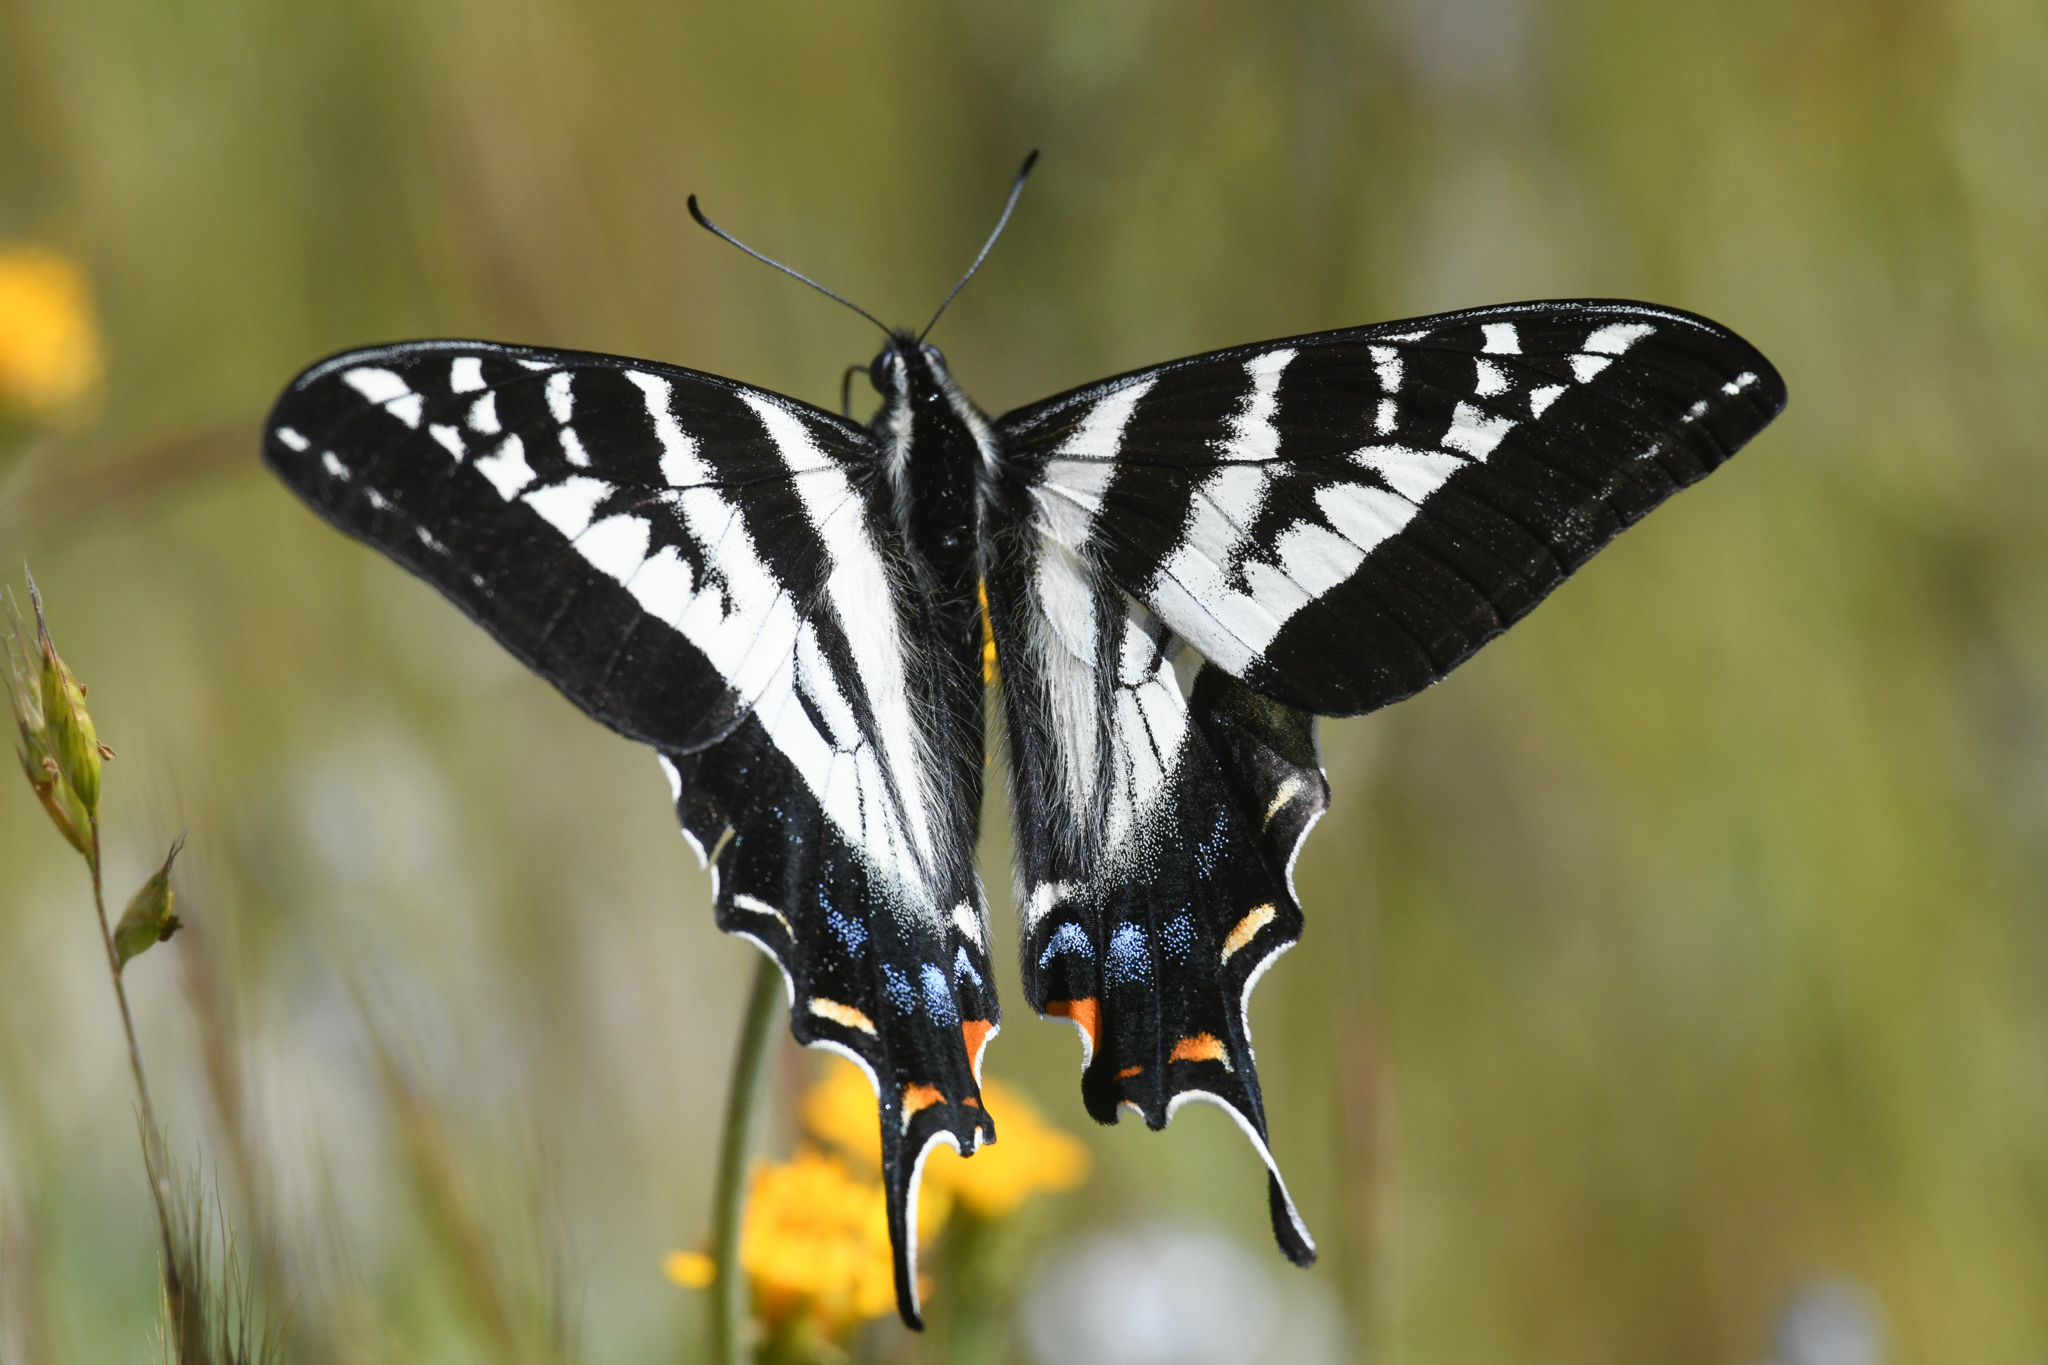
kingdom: Animalia
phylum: Arthropoda
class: Insecta
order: Lepidoptera
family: Papilionidae
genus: Papilio
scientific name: Papilio eurymedon
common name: Pale tiger swallowtail
